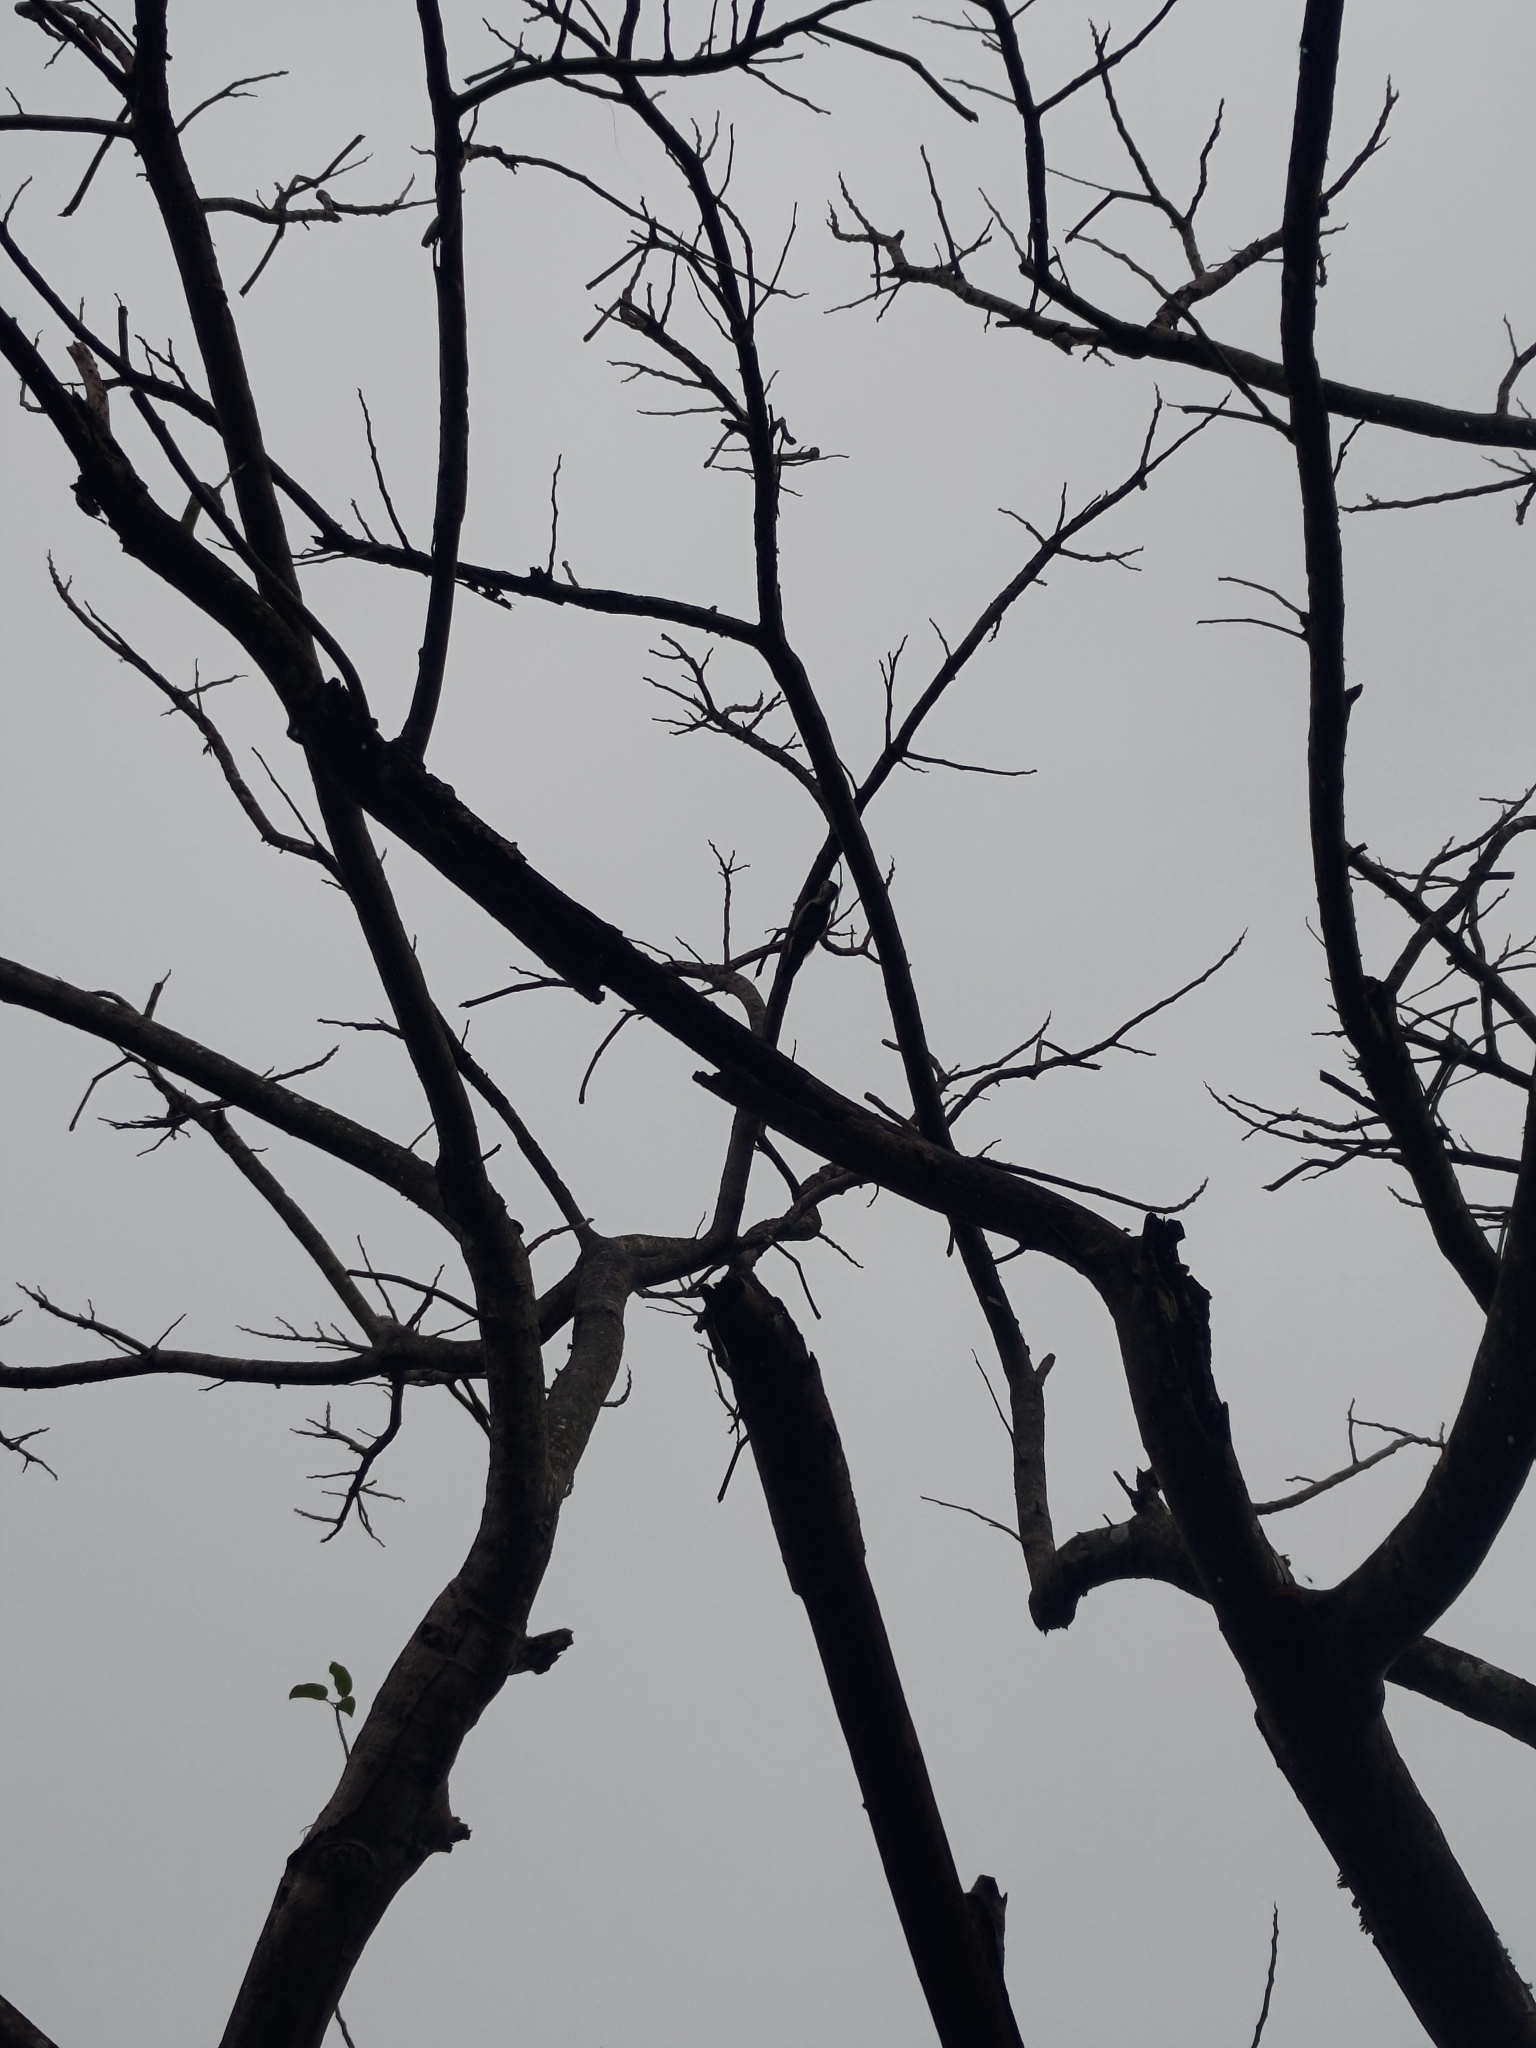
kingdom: Animalia
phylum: Chordata
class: Aves
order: Piciformes
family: Picidae
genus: Yungipicus
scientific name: Yungipicus canicapillus
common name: Grey-capped pygmy woodpecker
